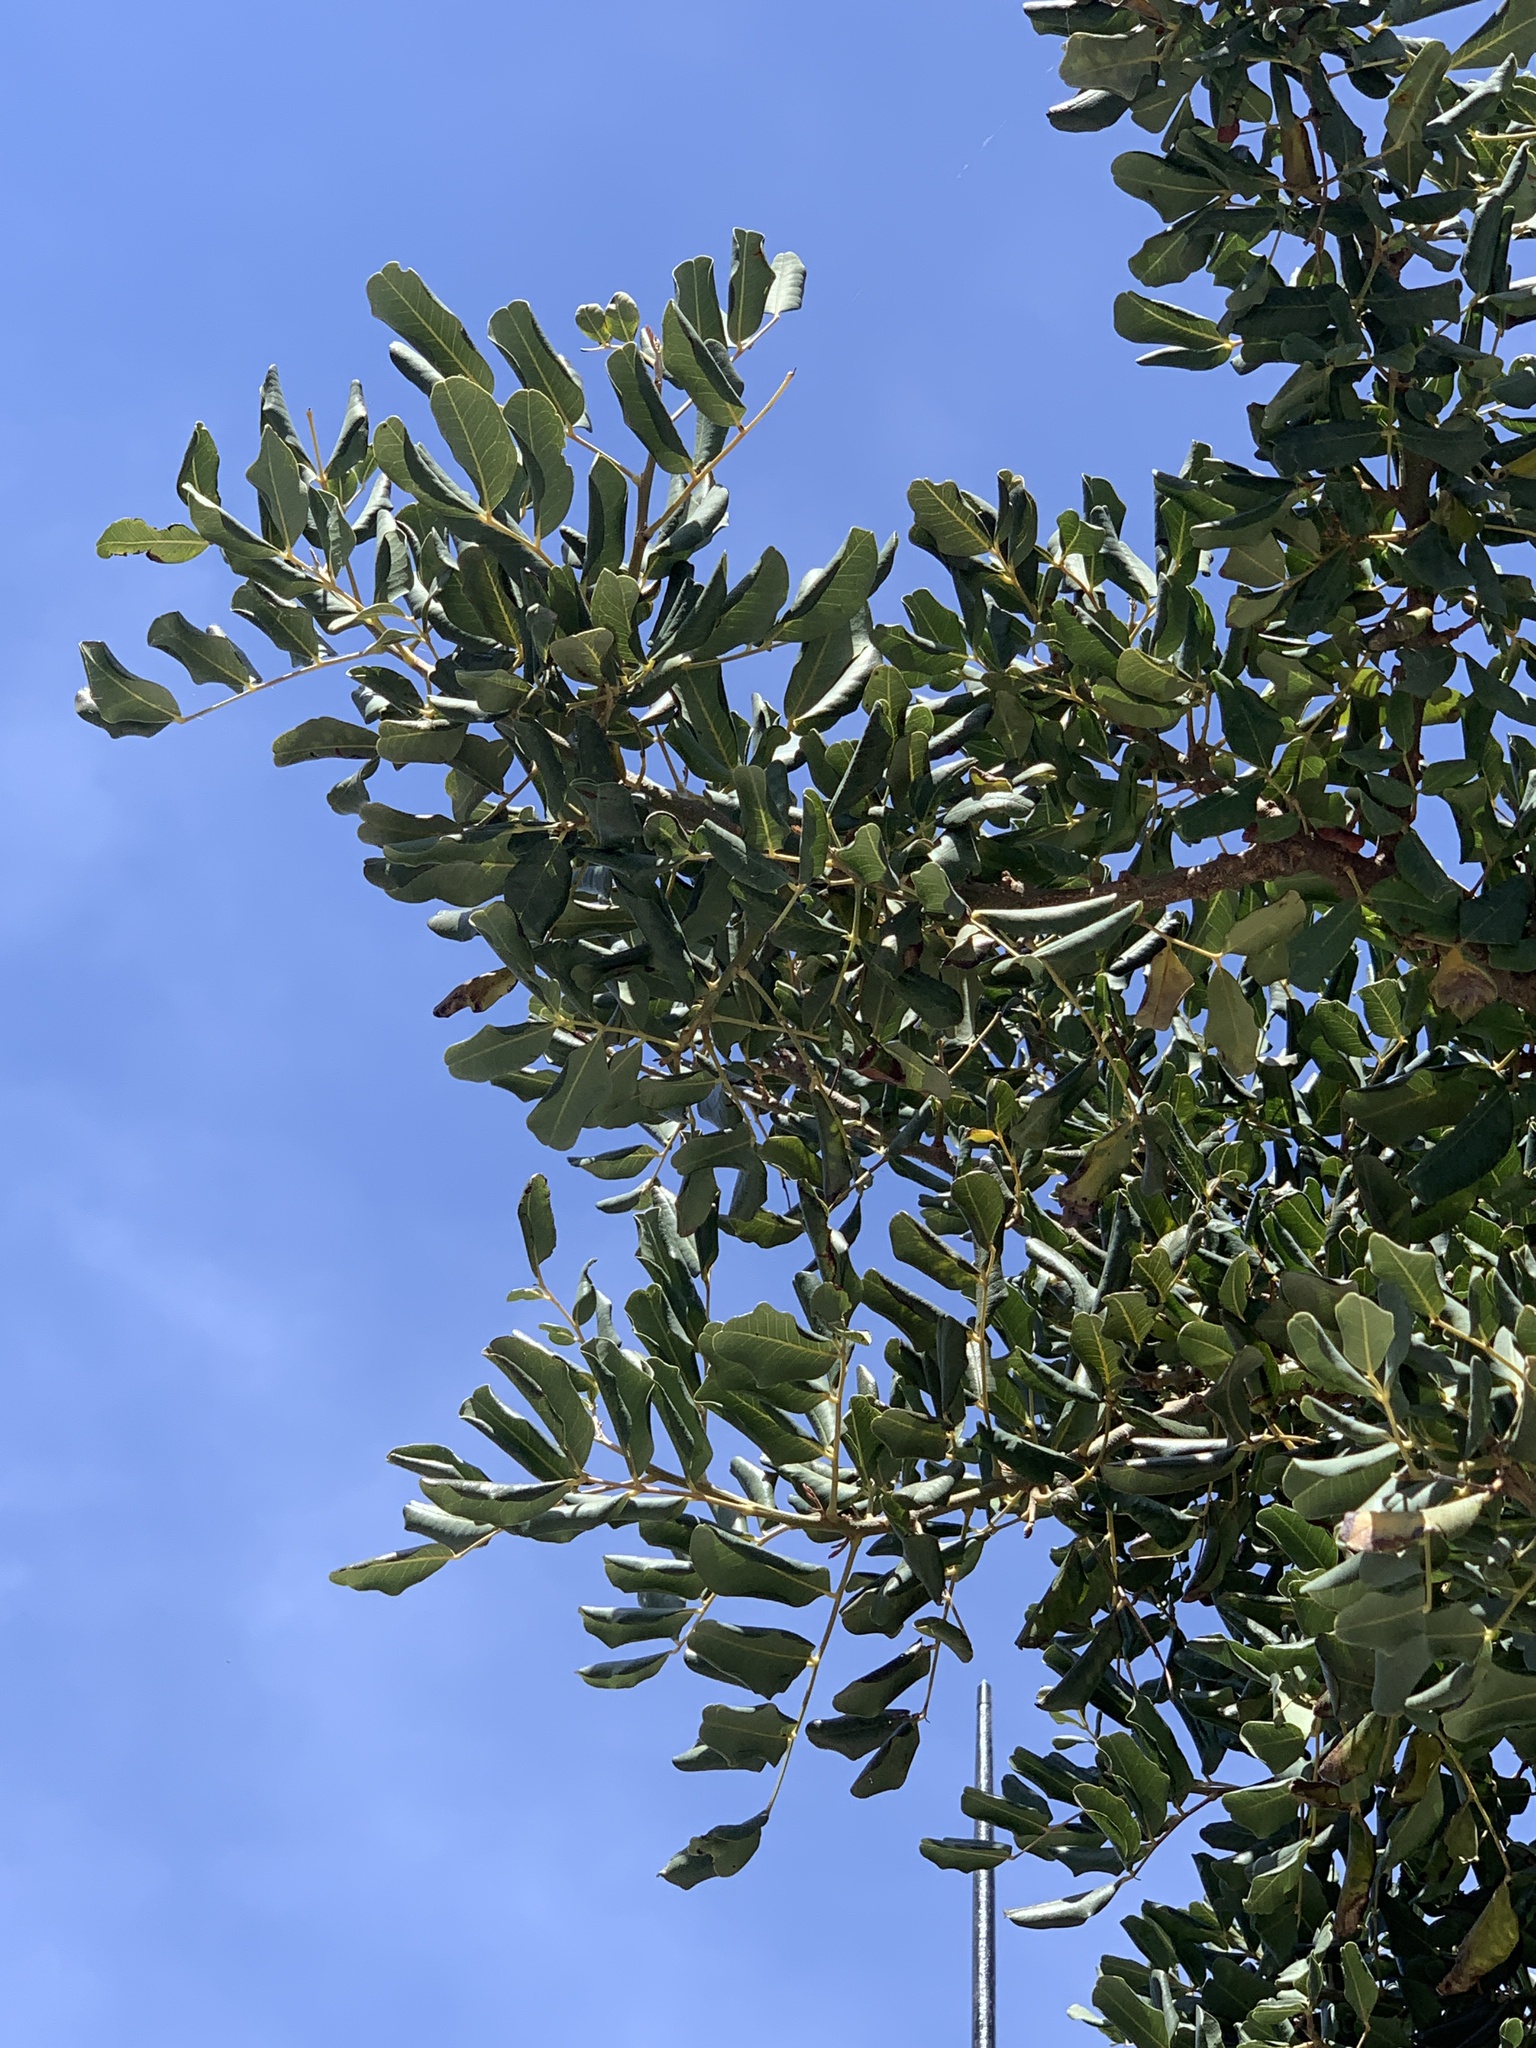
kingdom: Plantae
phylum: Tracheophyta
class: Magnoliopsida
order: Fabales
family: Fabaceae
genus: Ceratonia
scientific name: Ceratonia siliqua
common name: Carob
